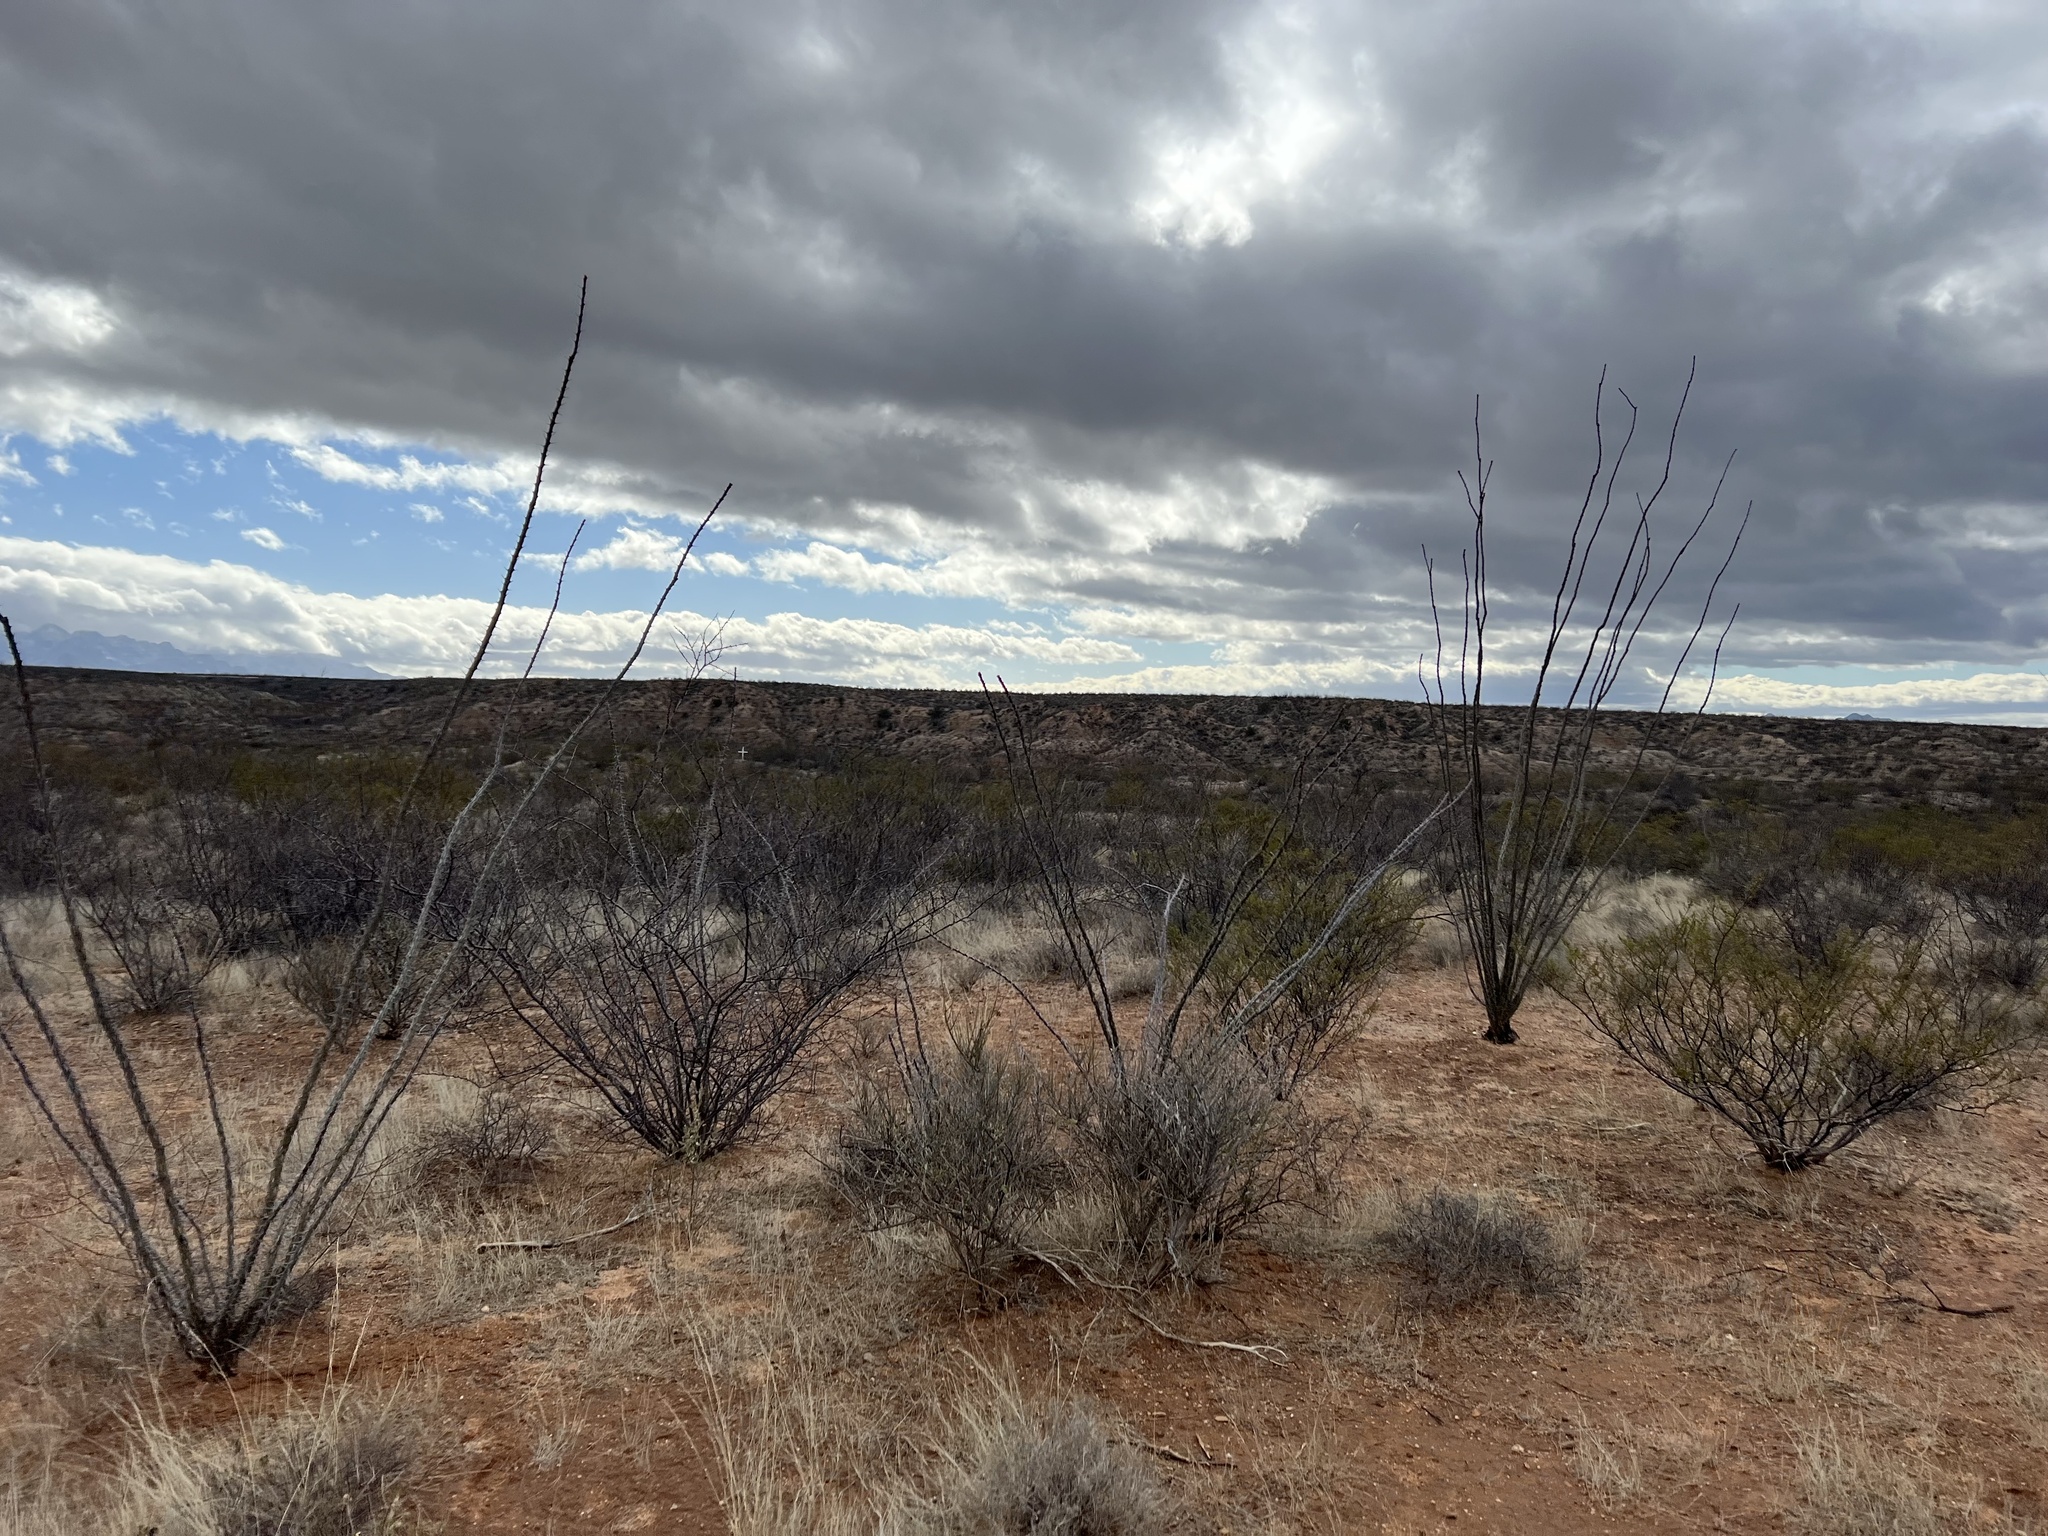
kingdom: Plantae
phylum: Tracheophyta
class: Magnoliopsida
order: Ericales
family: Fouquieriaceae
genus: Fouquieria
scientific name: Fouquieria splendens
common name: Vine-cactus
